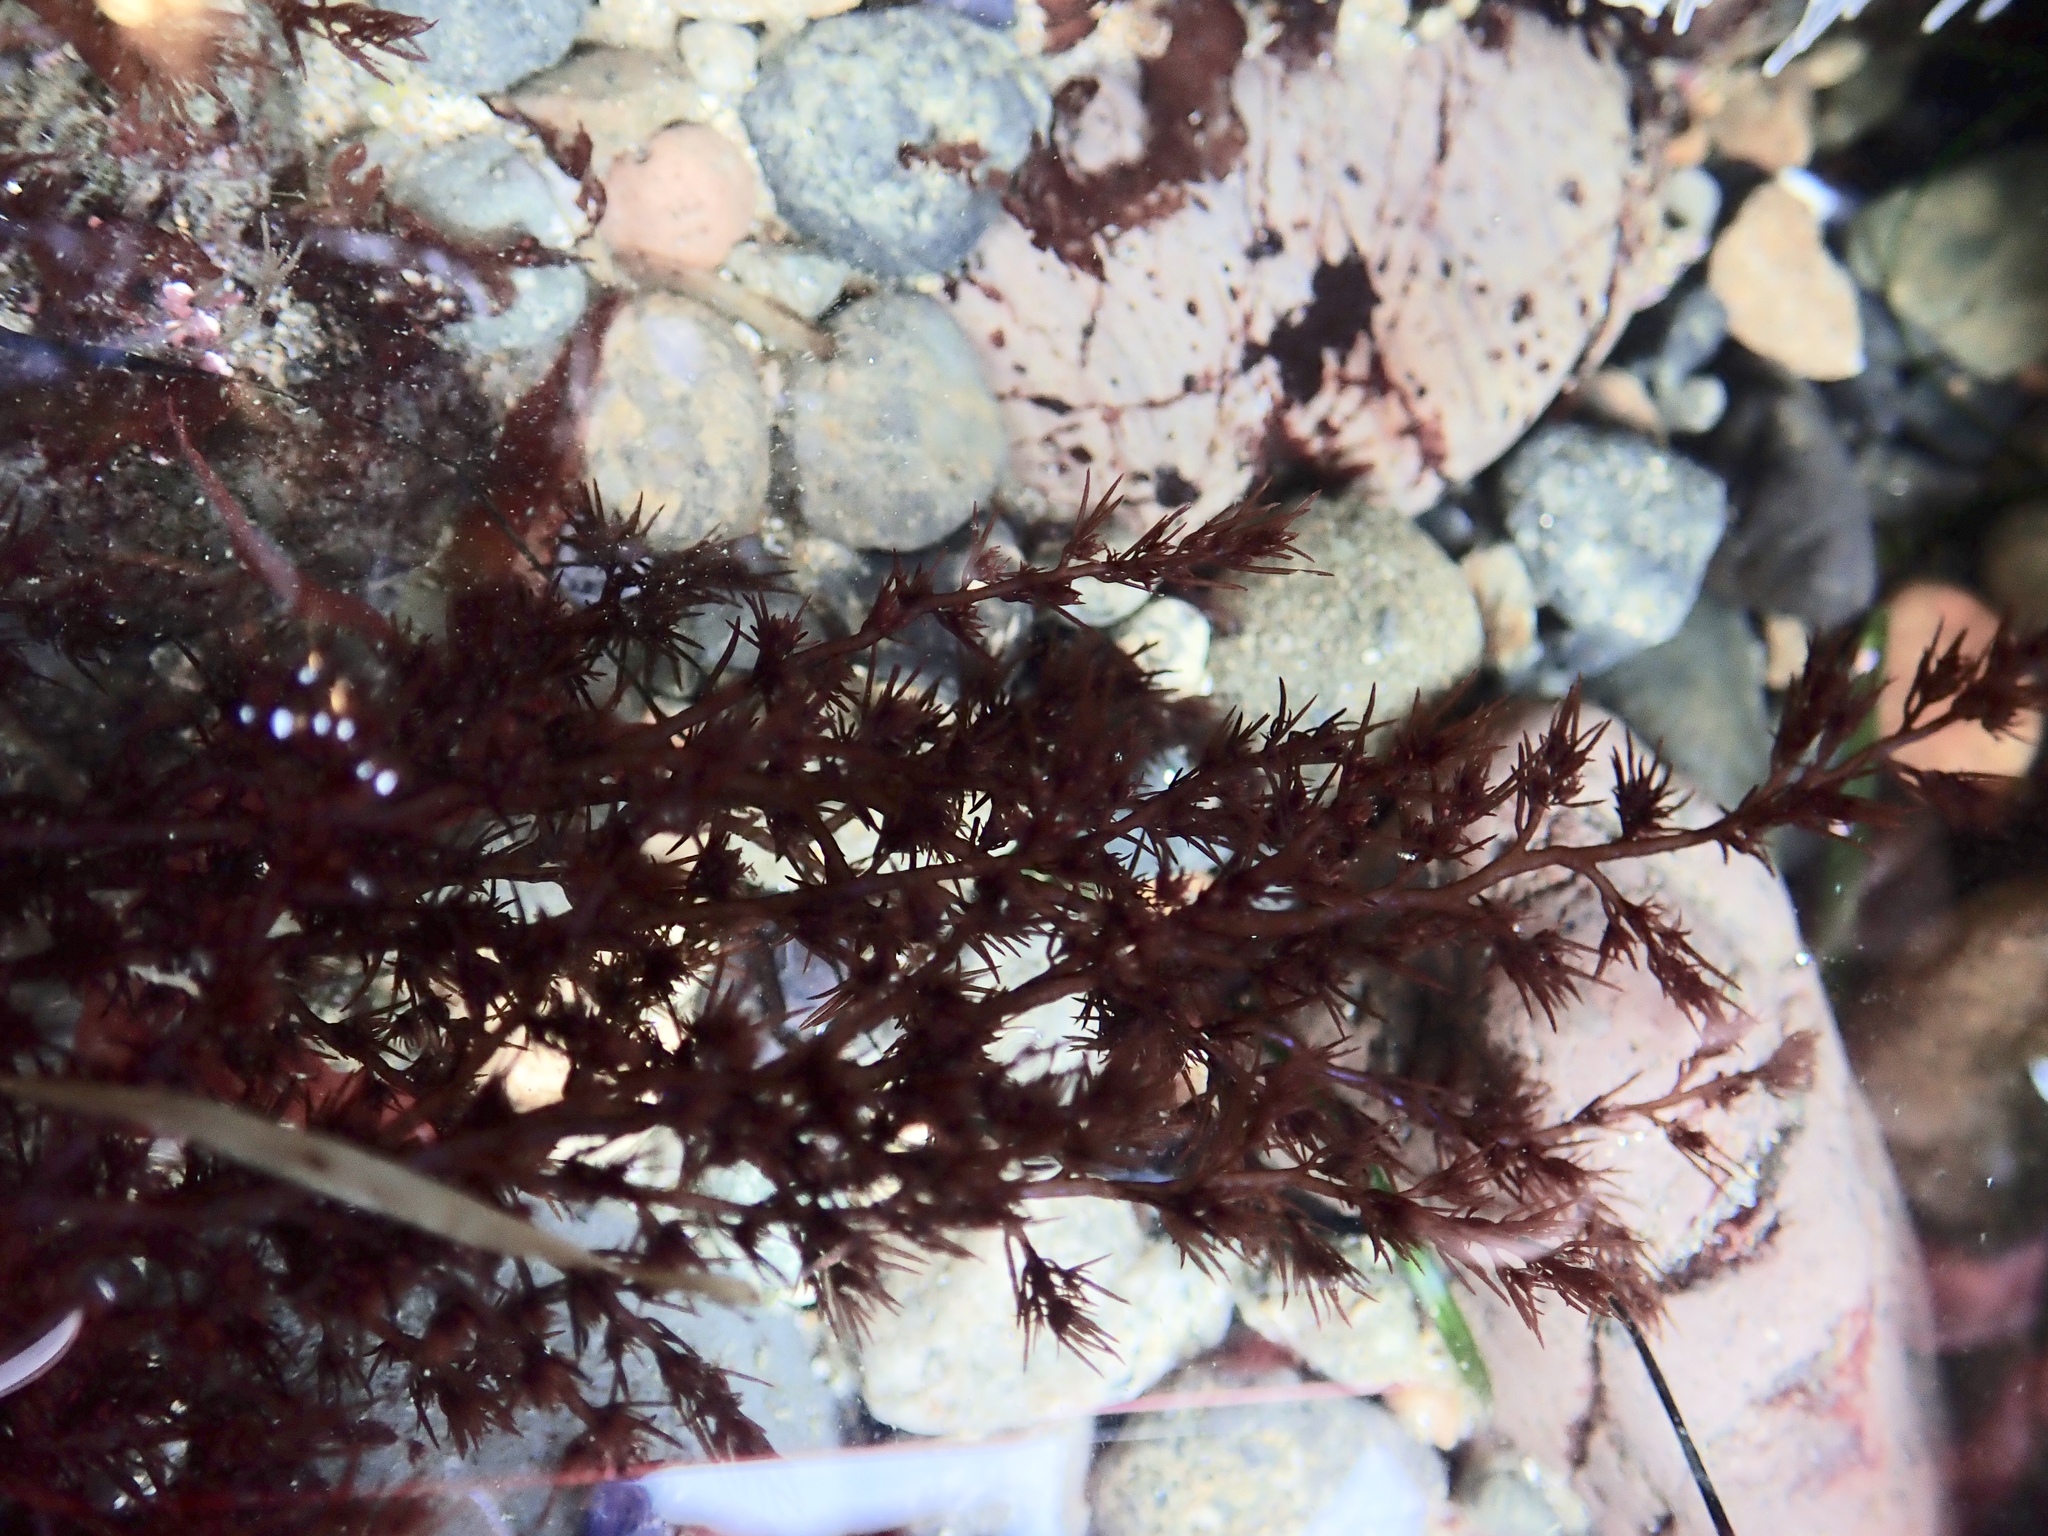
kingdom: Plantae
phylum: Rhodophyta
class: Florideophyceae
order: Ceramiales
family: Rhodomelaceae
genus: Odonthalia
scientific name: Odonthalia floccosa
